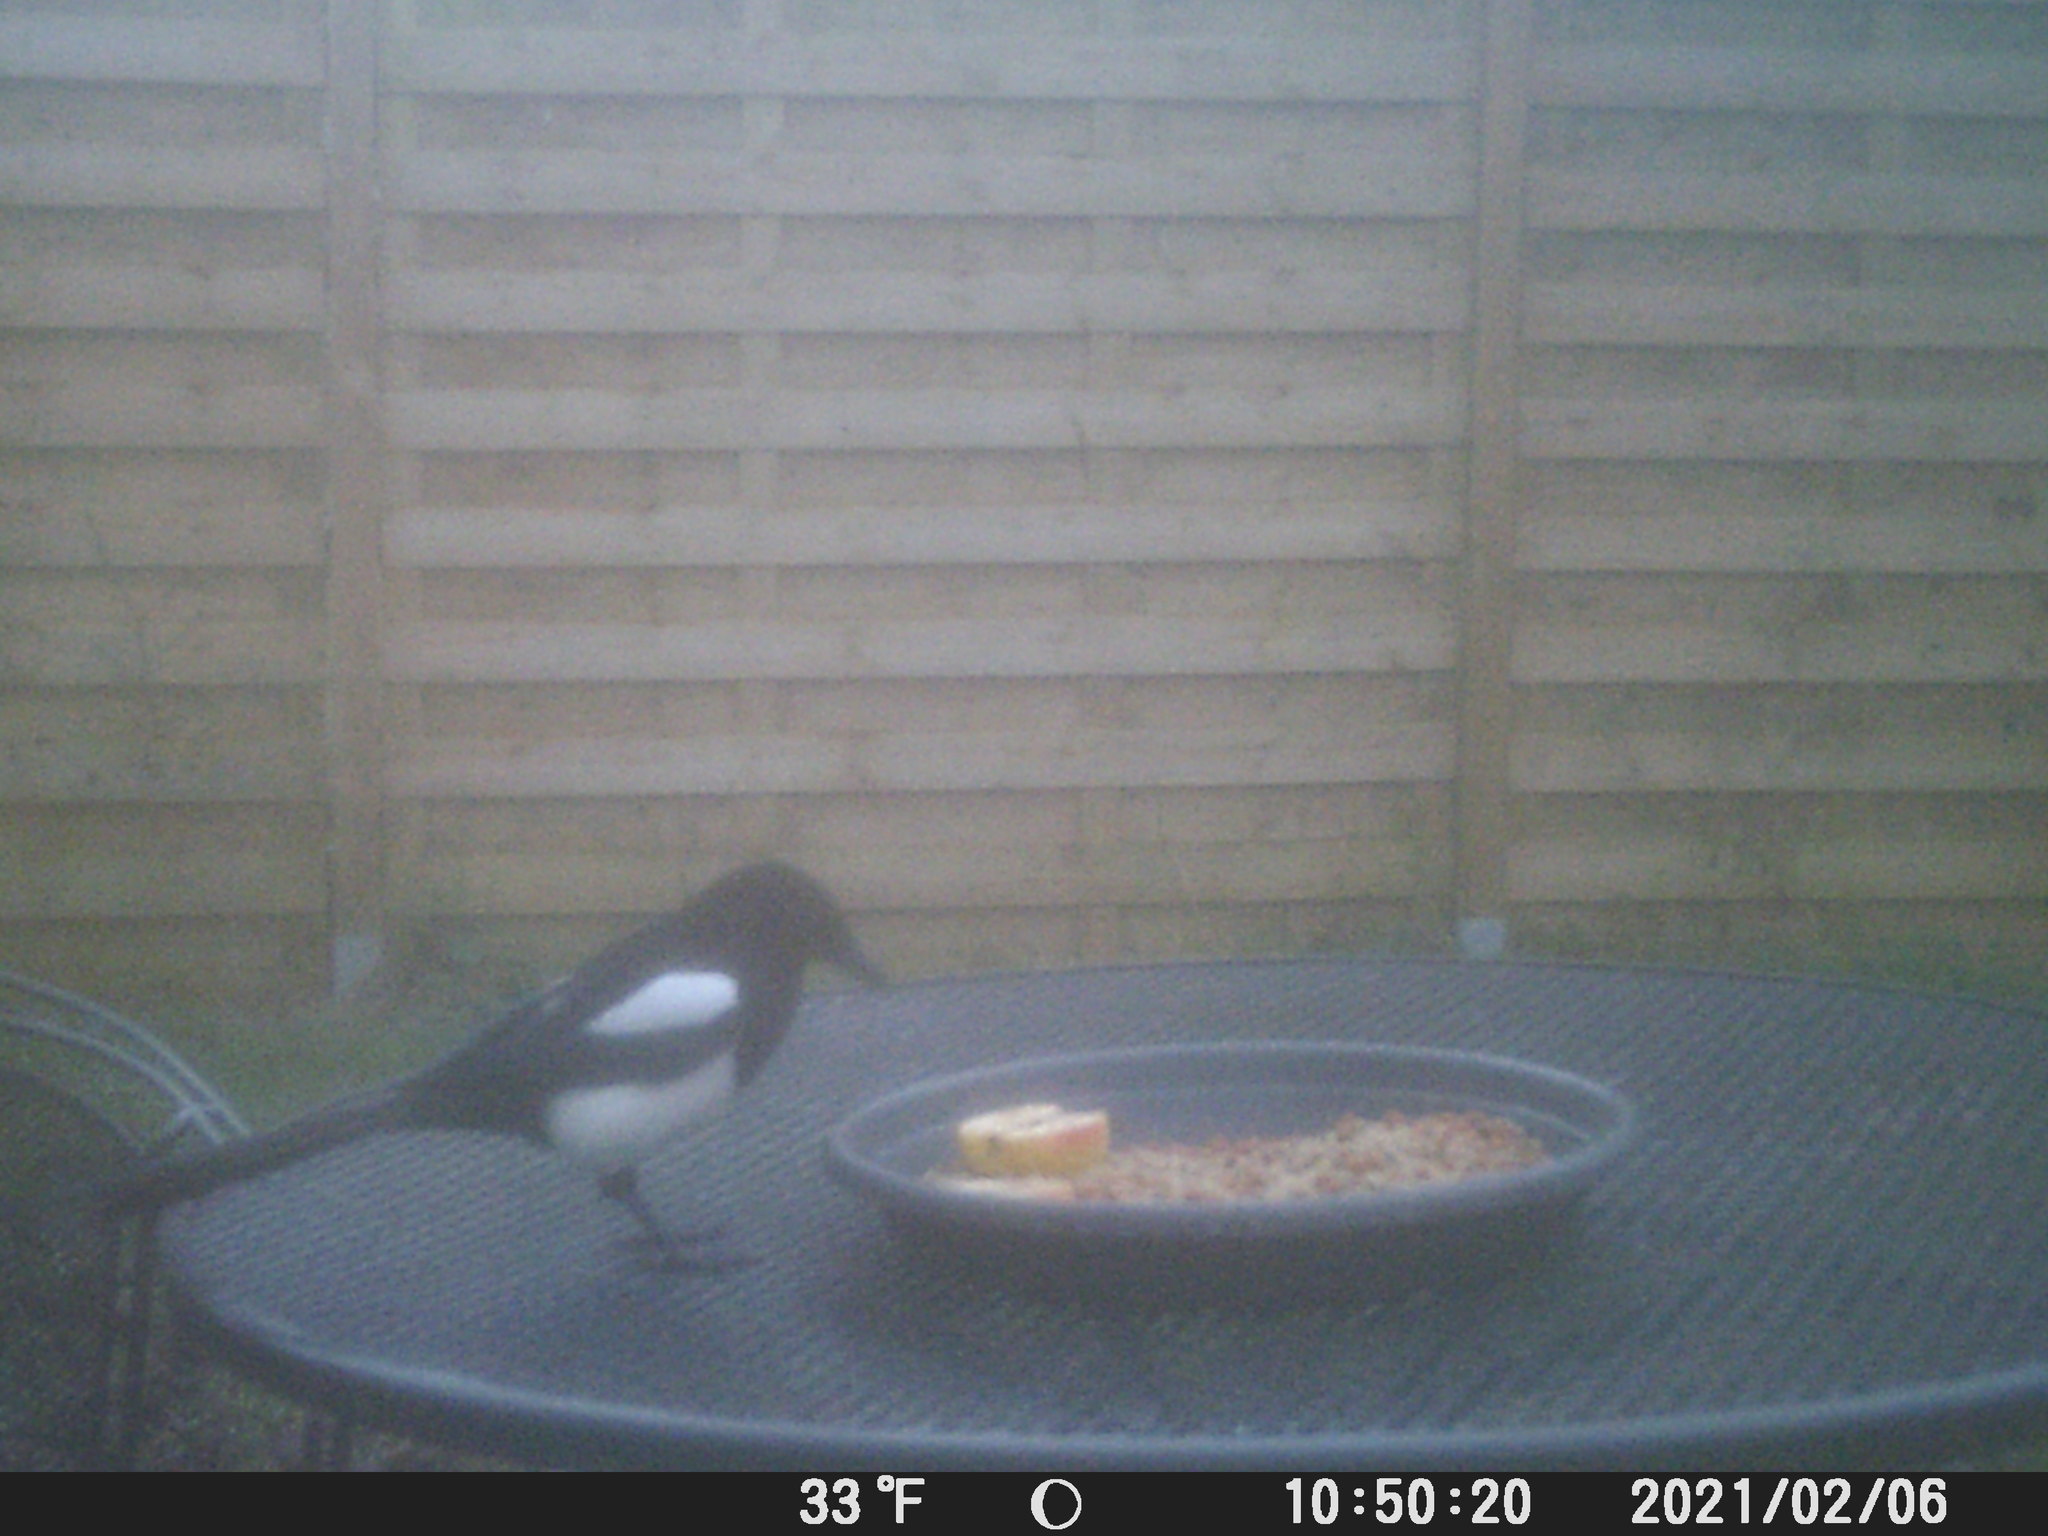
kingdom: Animalia
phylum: Chordata
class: Aves
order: Passeriformes
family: Corvidae
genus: Pica
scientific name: Pica pica
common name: Eurasian magpie
